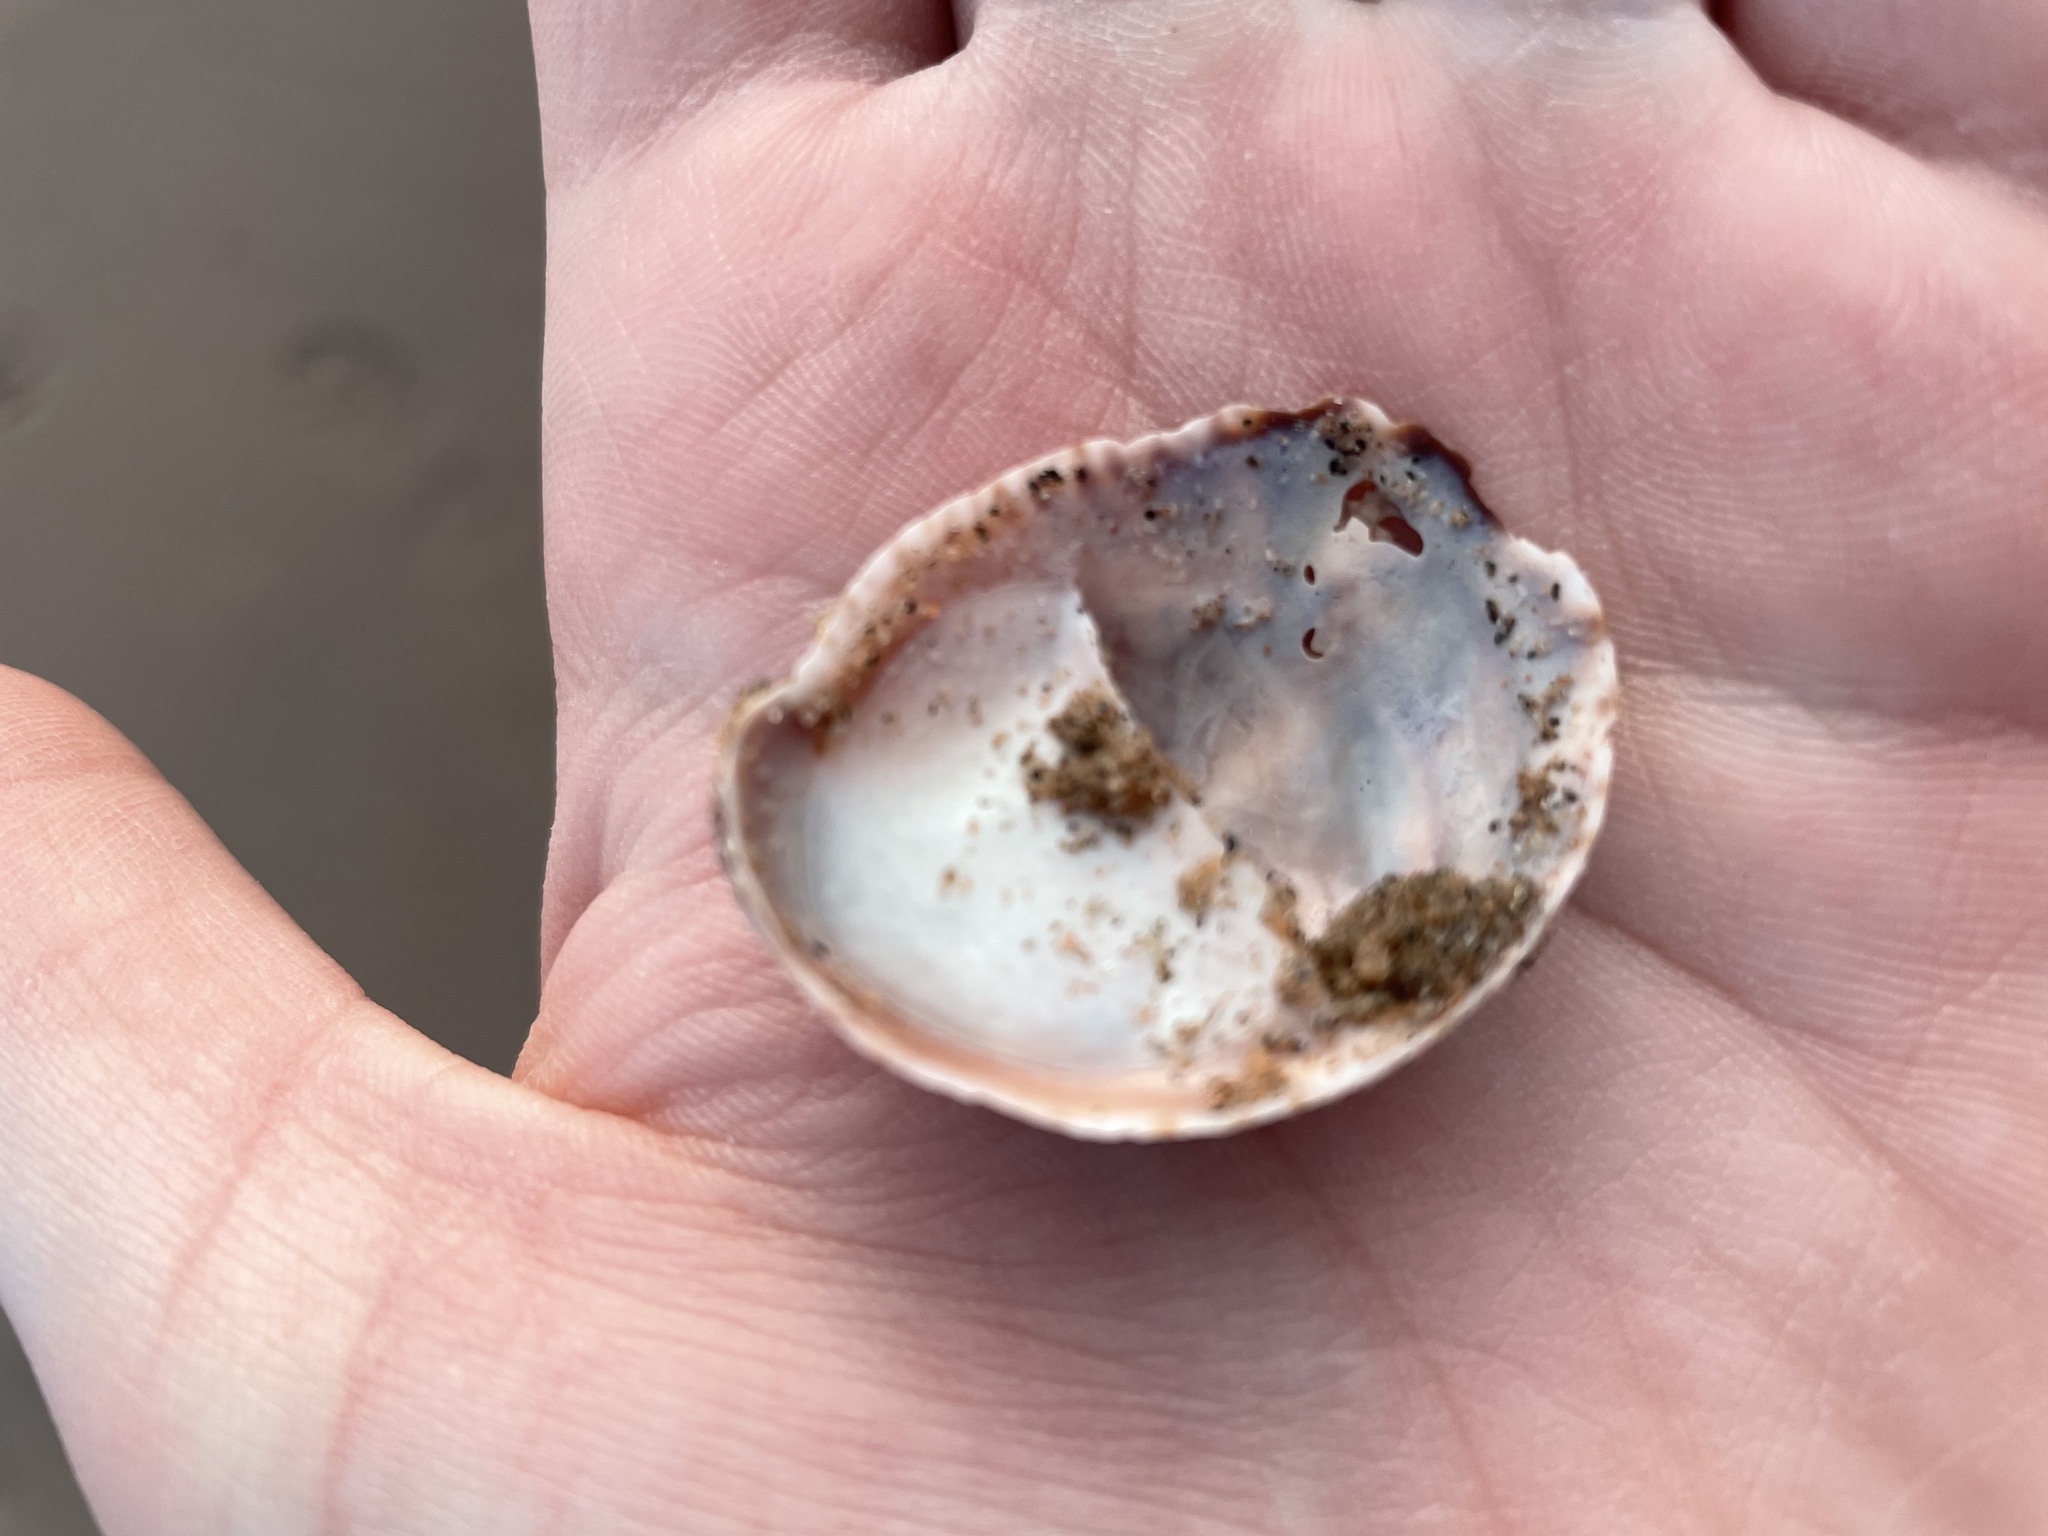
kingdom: Animalia
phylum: Mollusca
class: Gastropoda
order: Littorinimorpha
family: Calyptraeidae
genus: Crepidula
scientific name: Crepidula fornicata
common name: Slipper limpet
